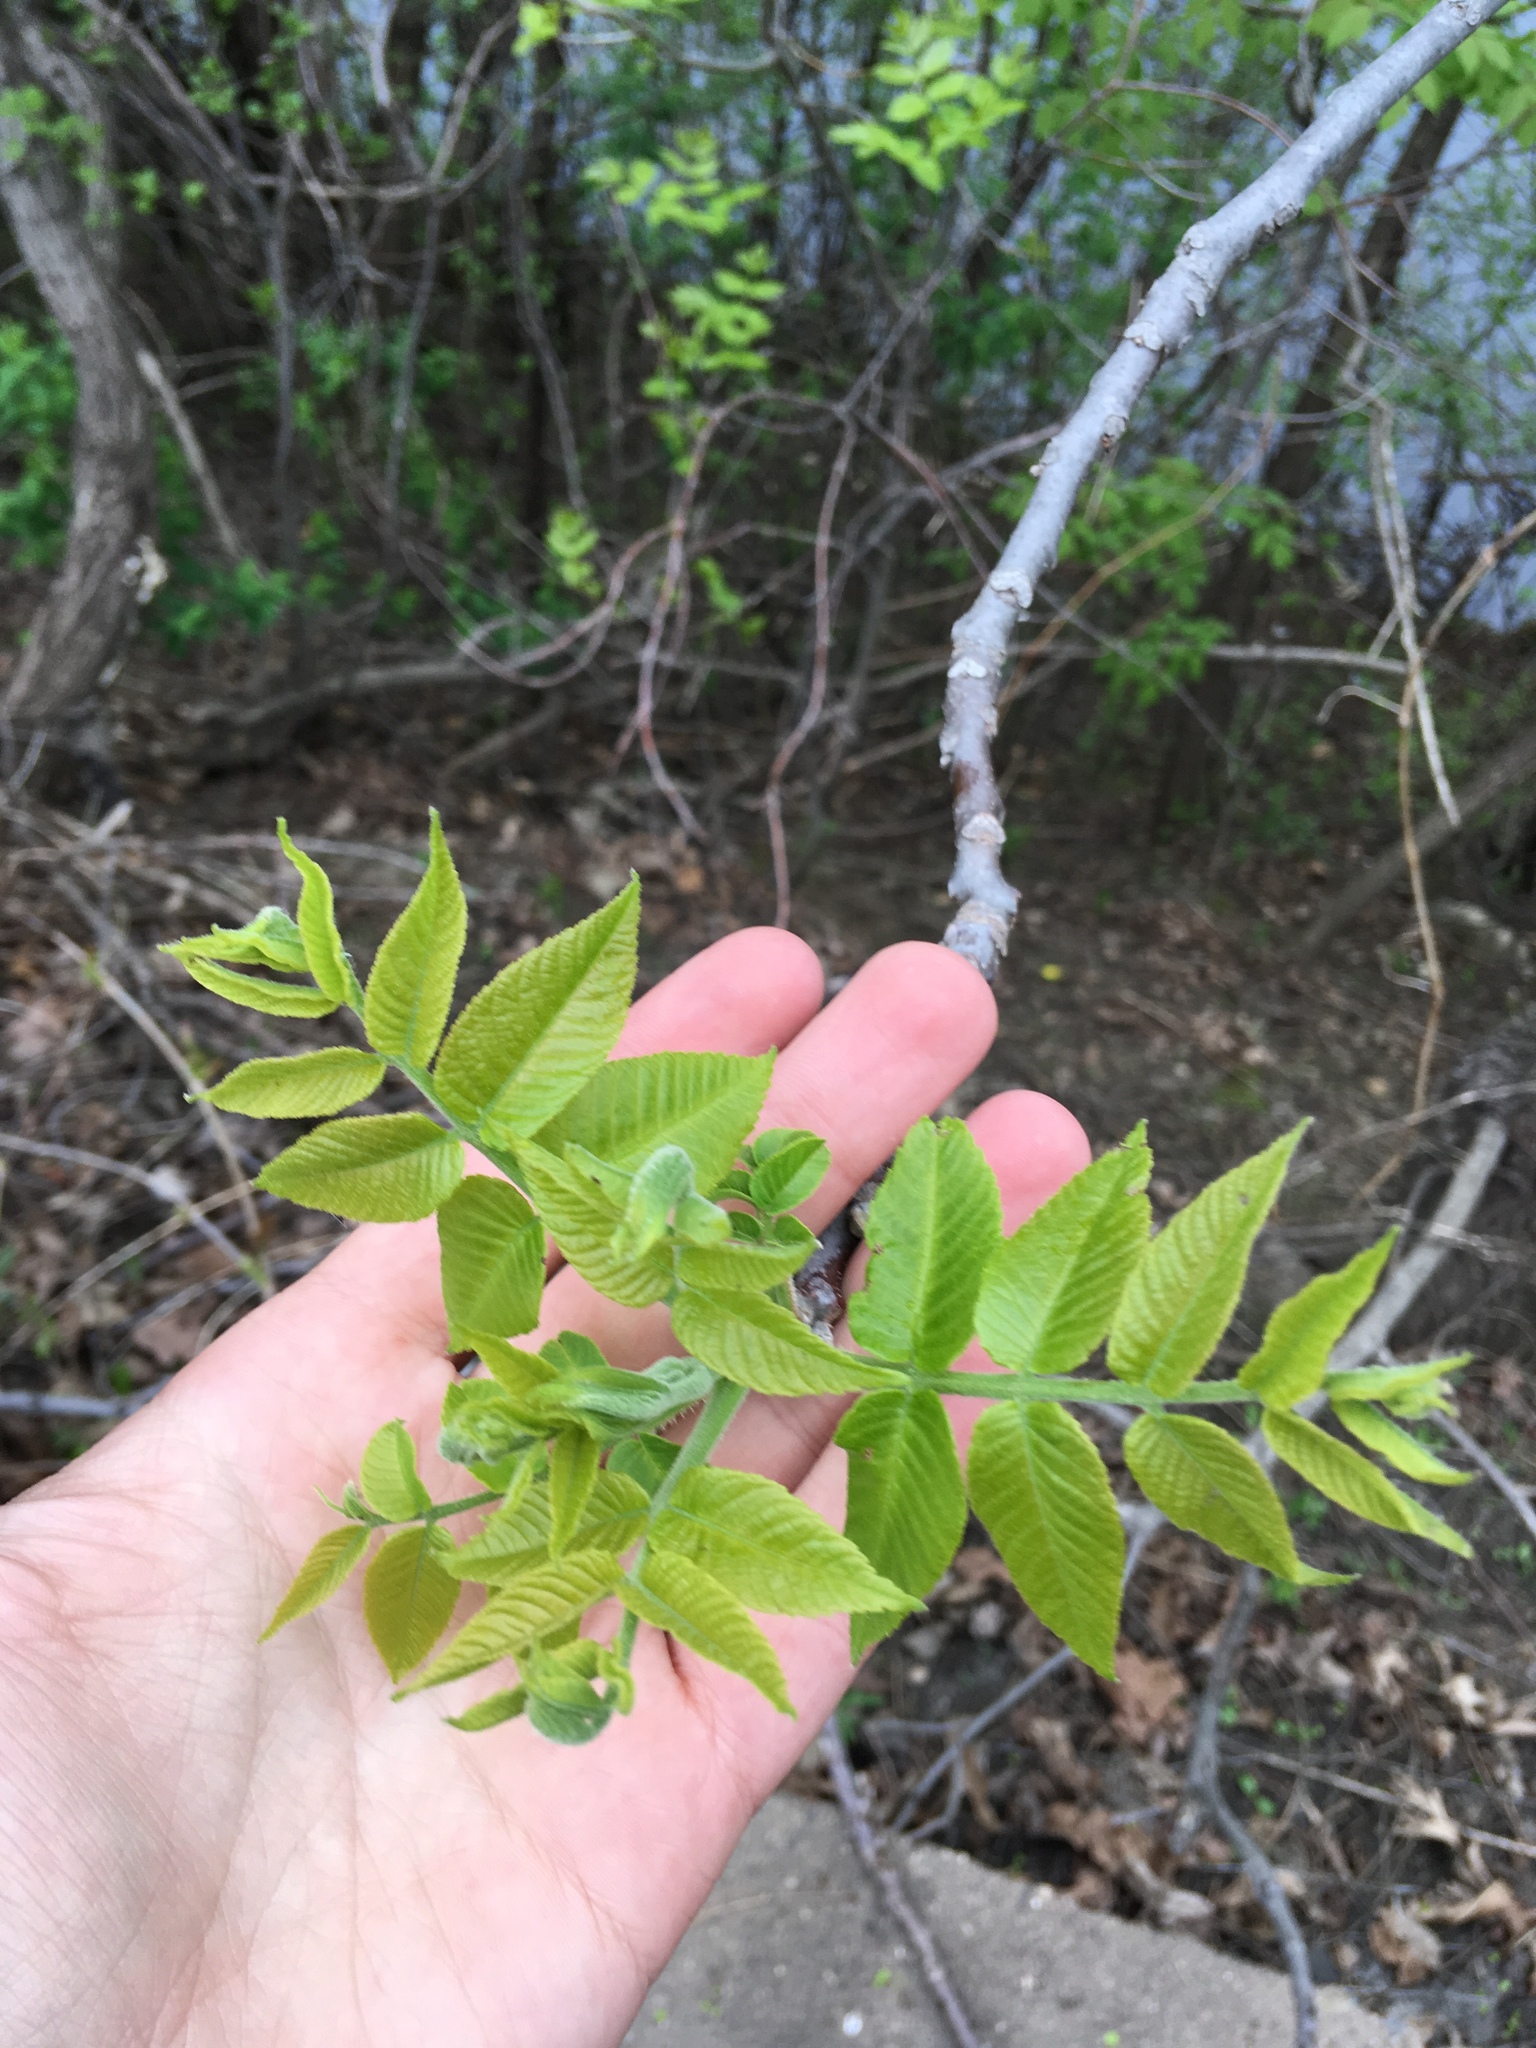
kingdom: Plantae
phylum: Tracheophyta
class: Magnoliopsida
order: Fagales
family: Juglandaceae
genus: Juglans
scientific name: Juglans nigra
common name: Black walnut
